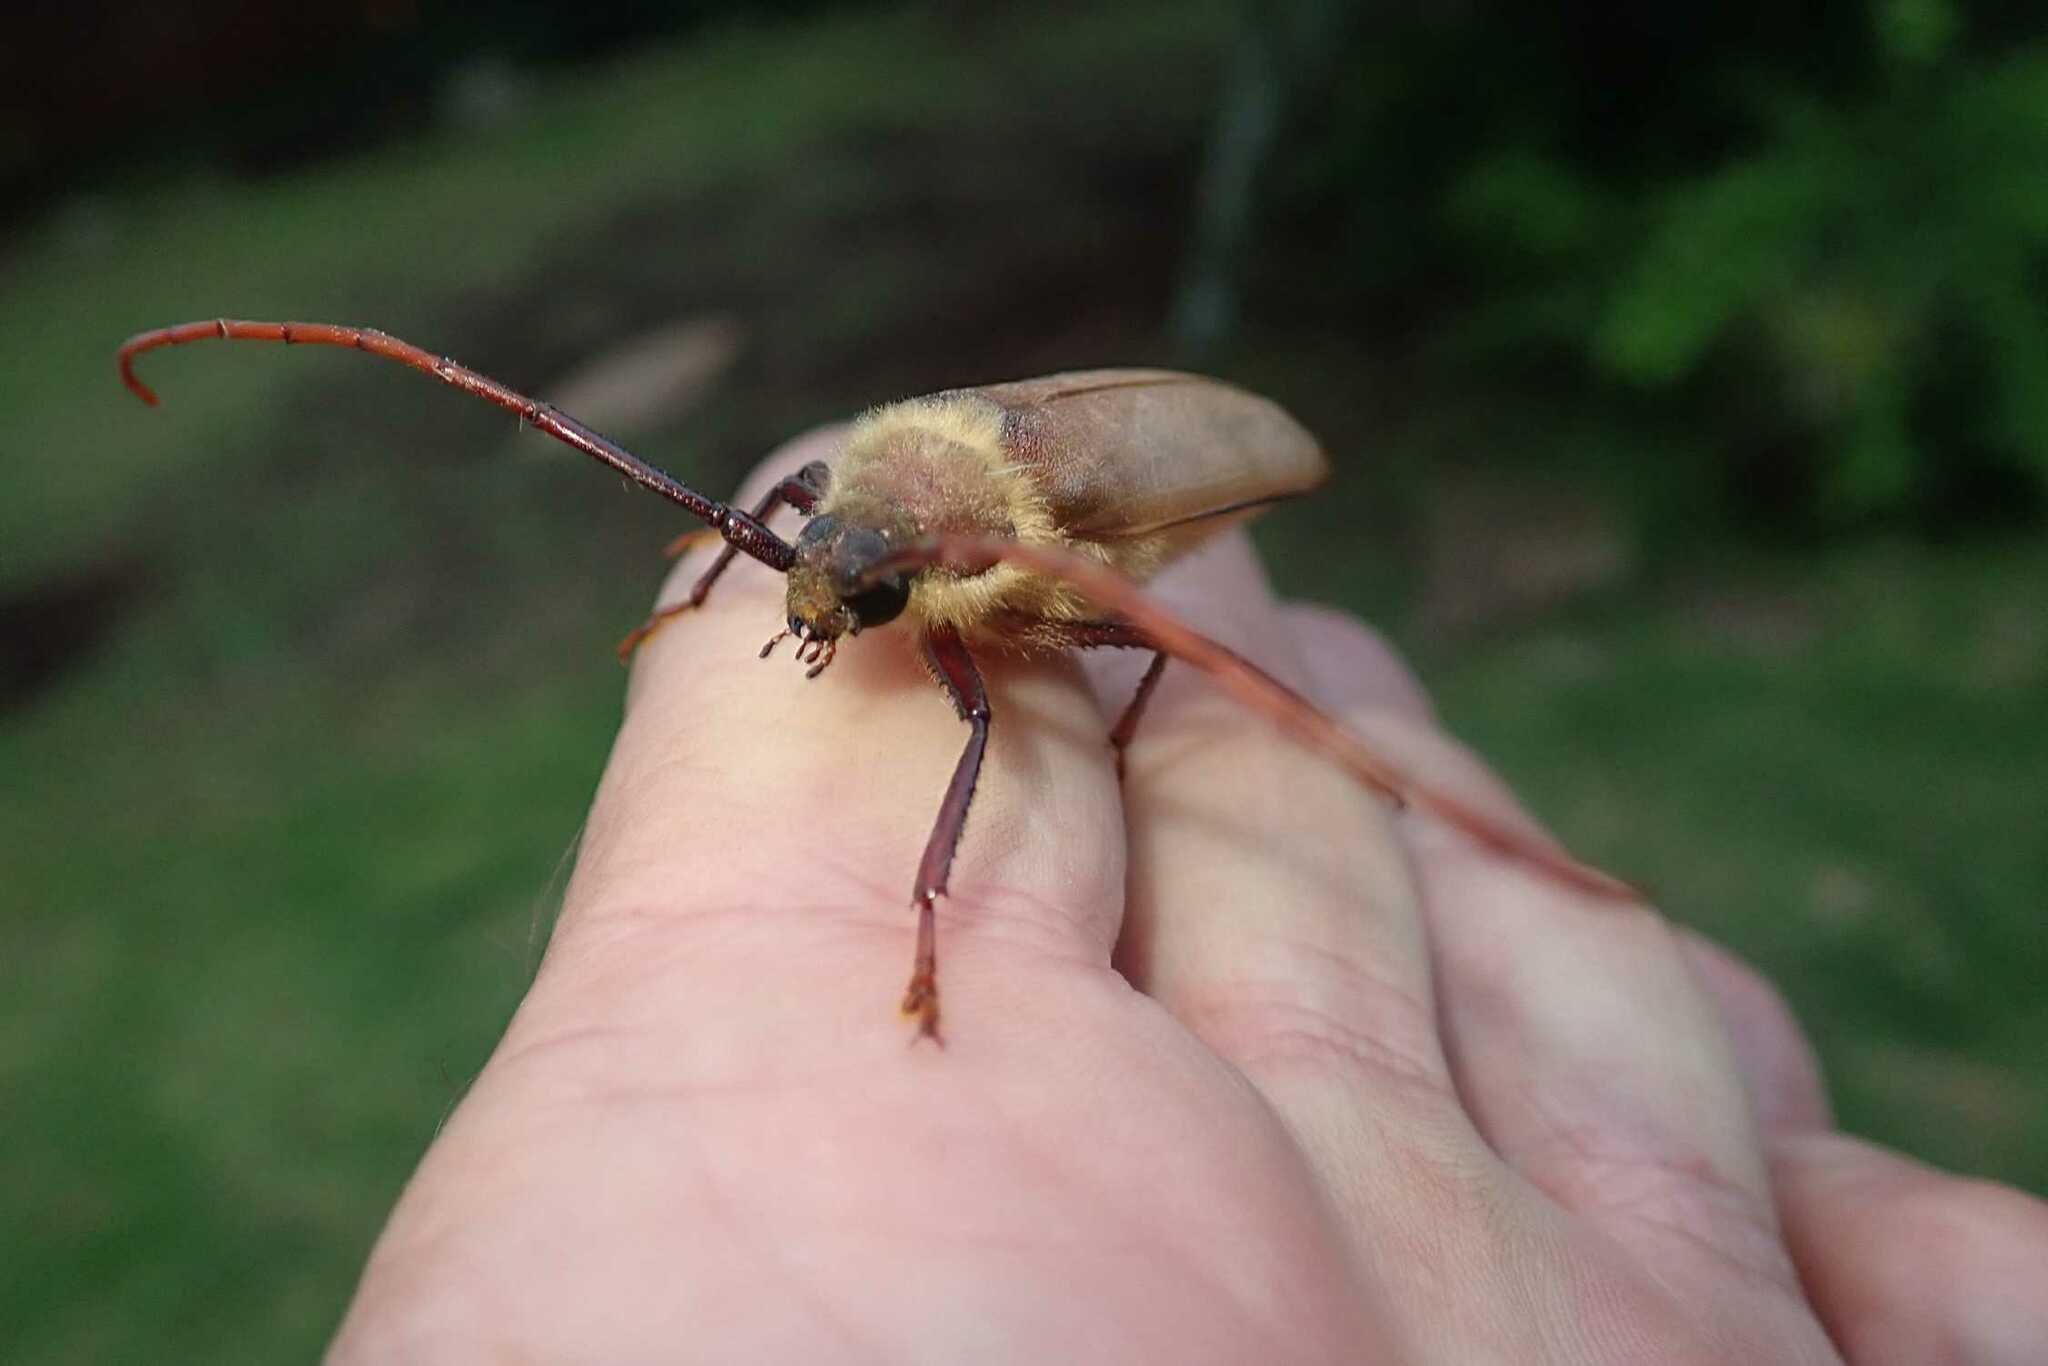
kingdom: Animalia
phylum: Arthropoda
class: Insecta
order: Coleoptera
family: Cerambycidae
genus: Erioderus
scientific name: Erioderus pallens
